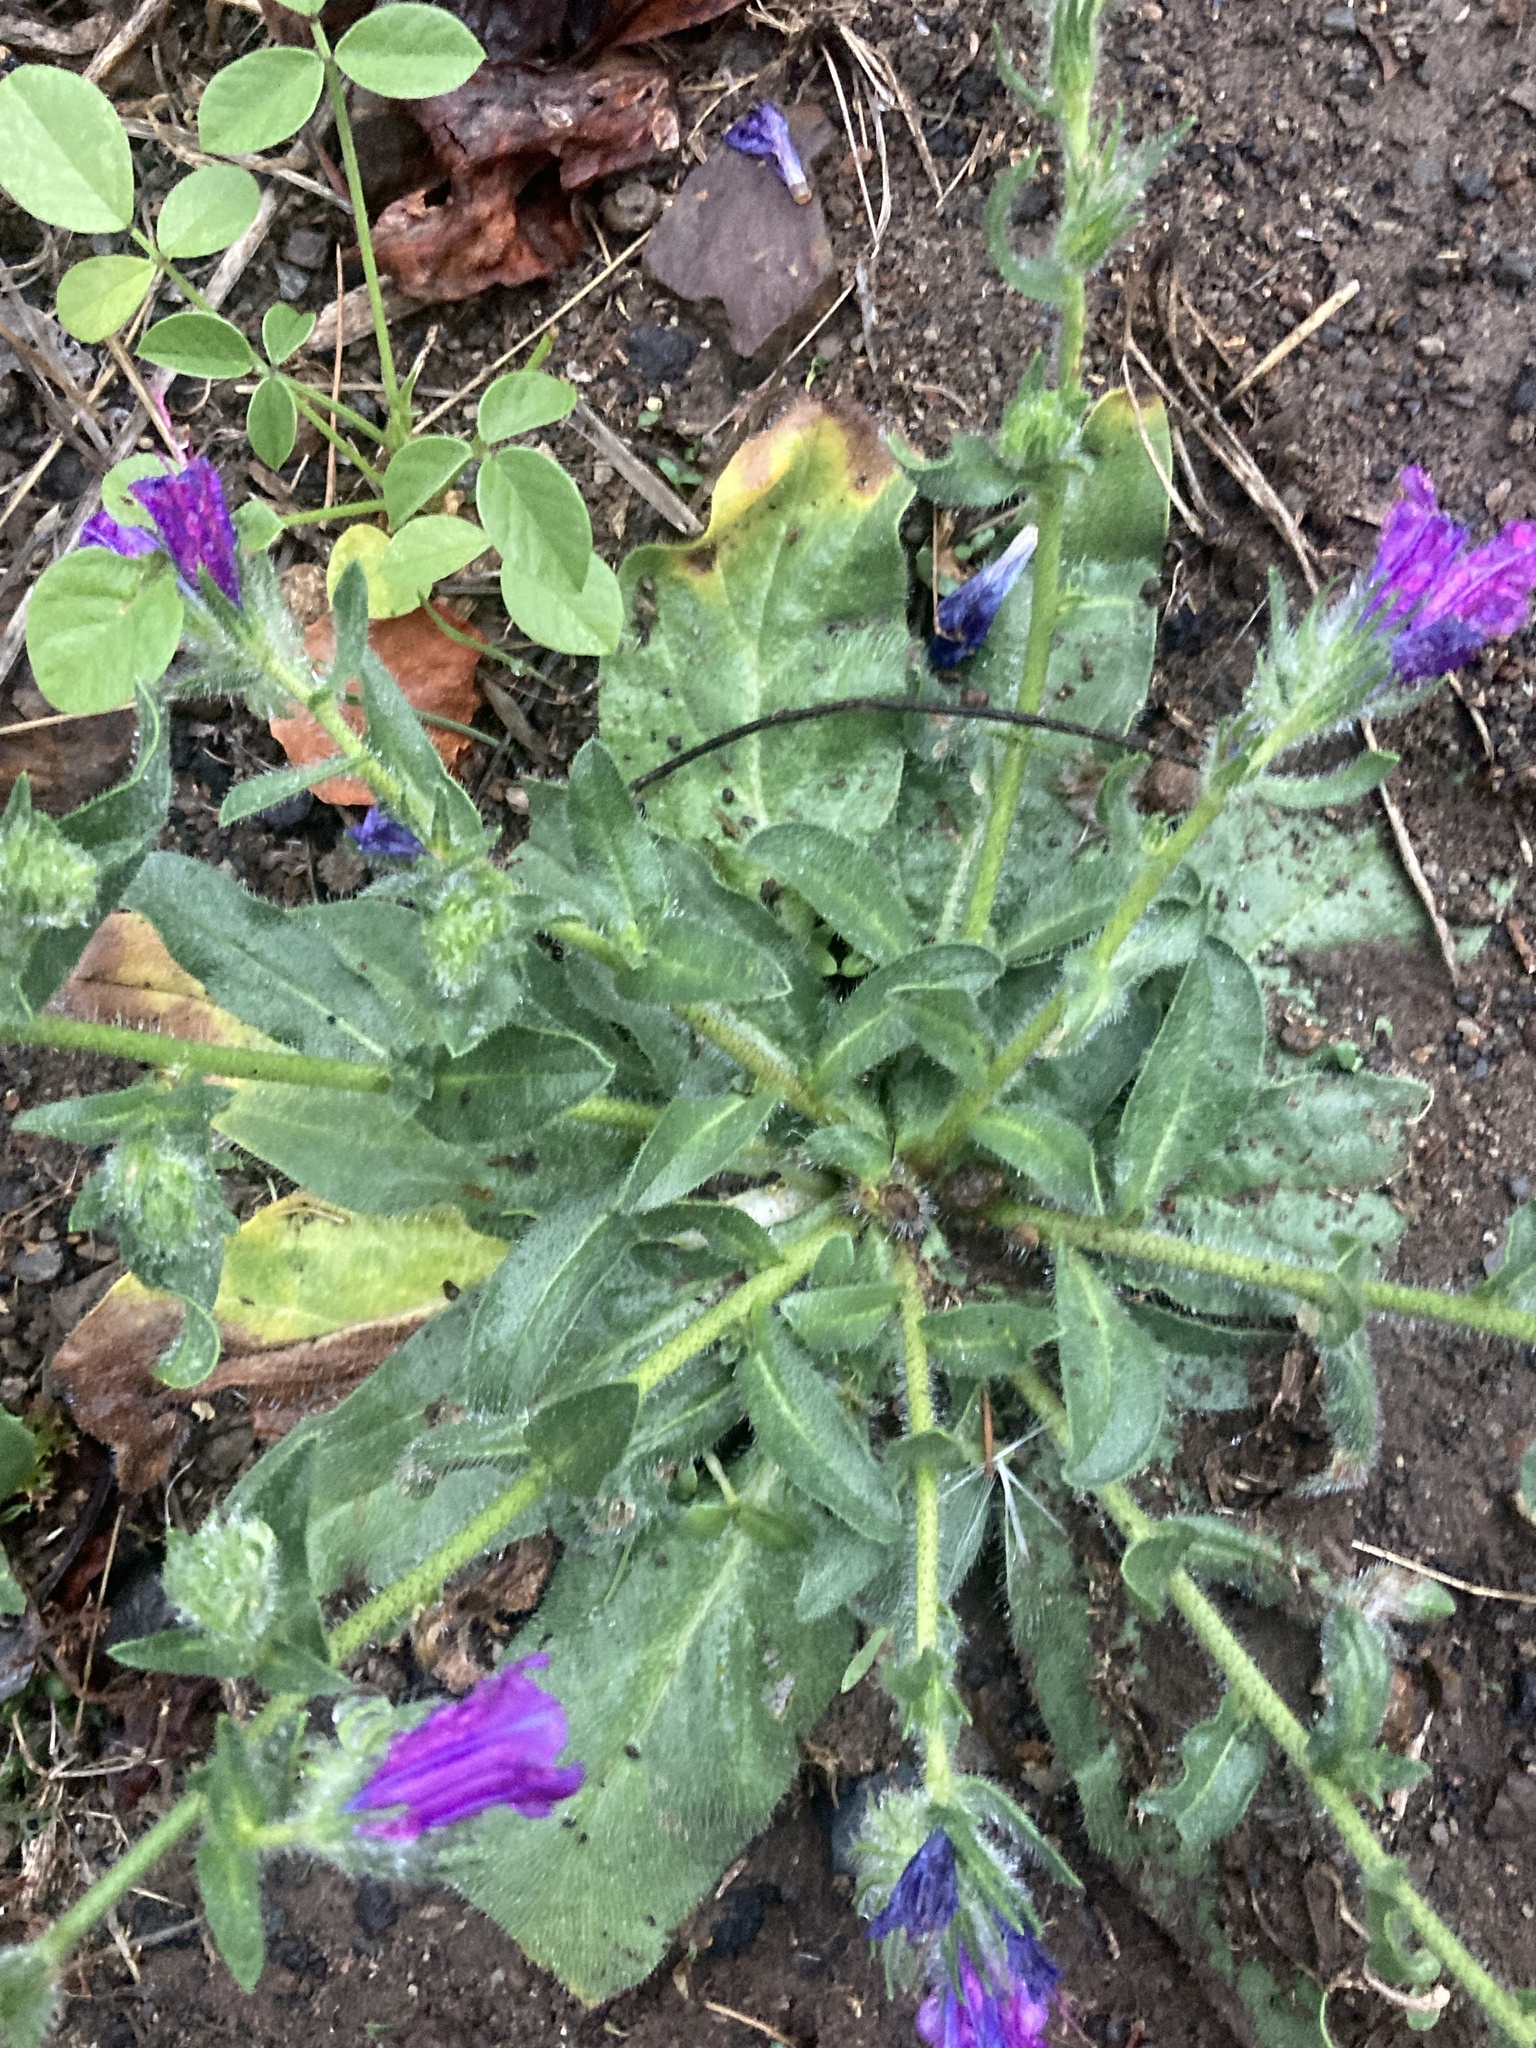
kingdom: Plantae
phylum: Tracheophyta
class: Magnoliopsida
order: Boraginales
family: Boraginaceae
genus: Echium
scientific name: Echium plantagineum
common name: Purple viper's-bugloss
